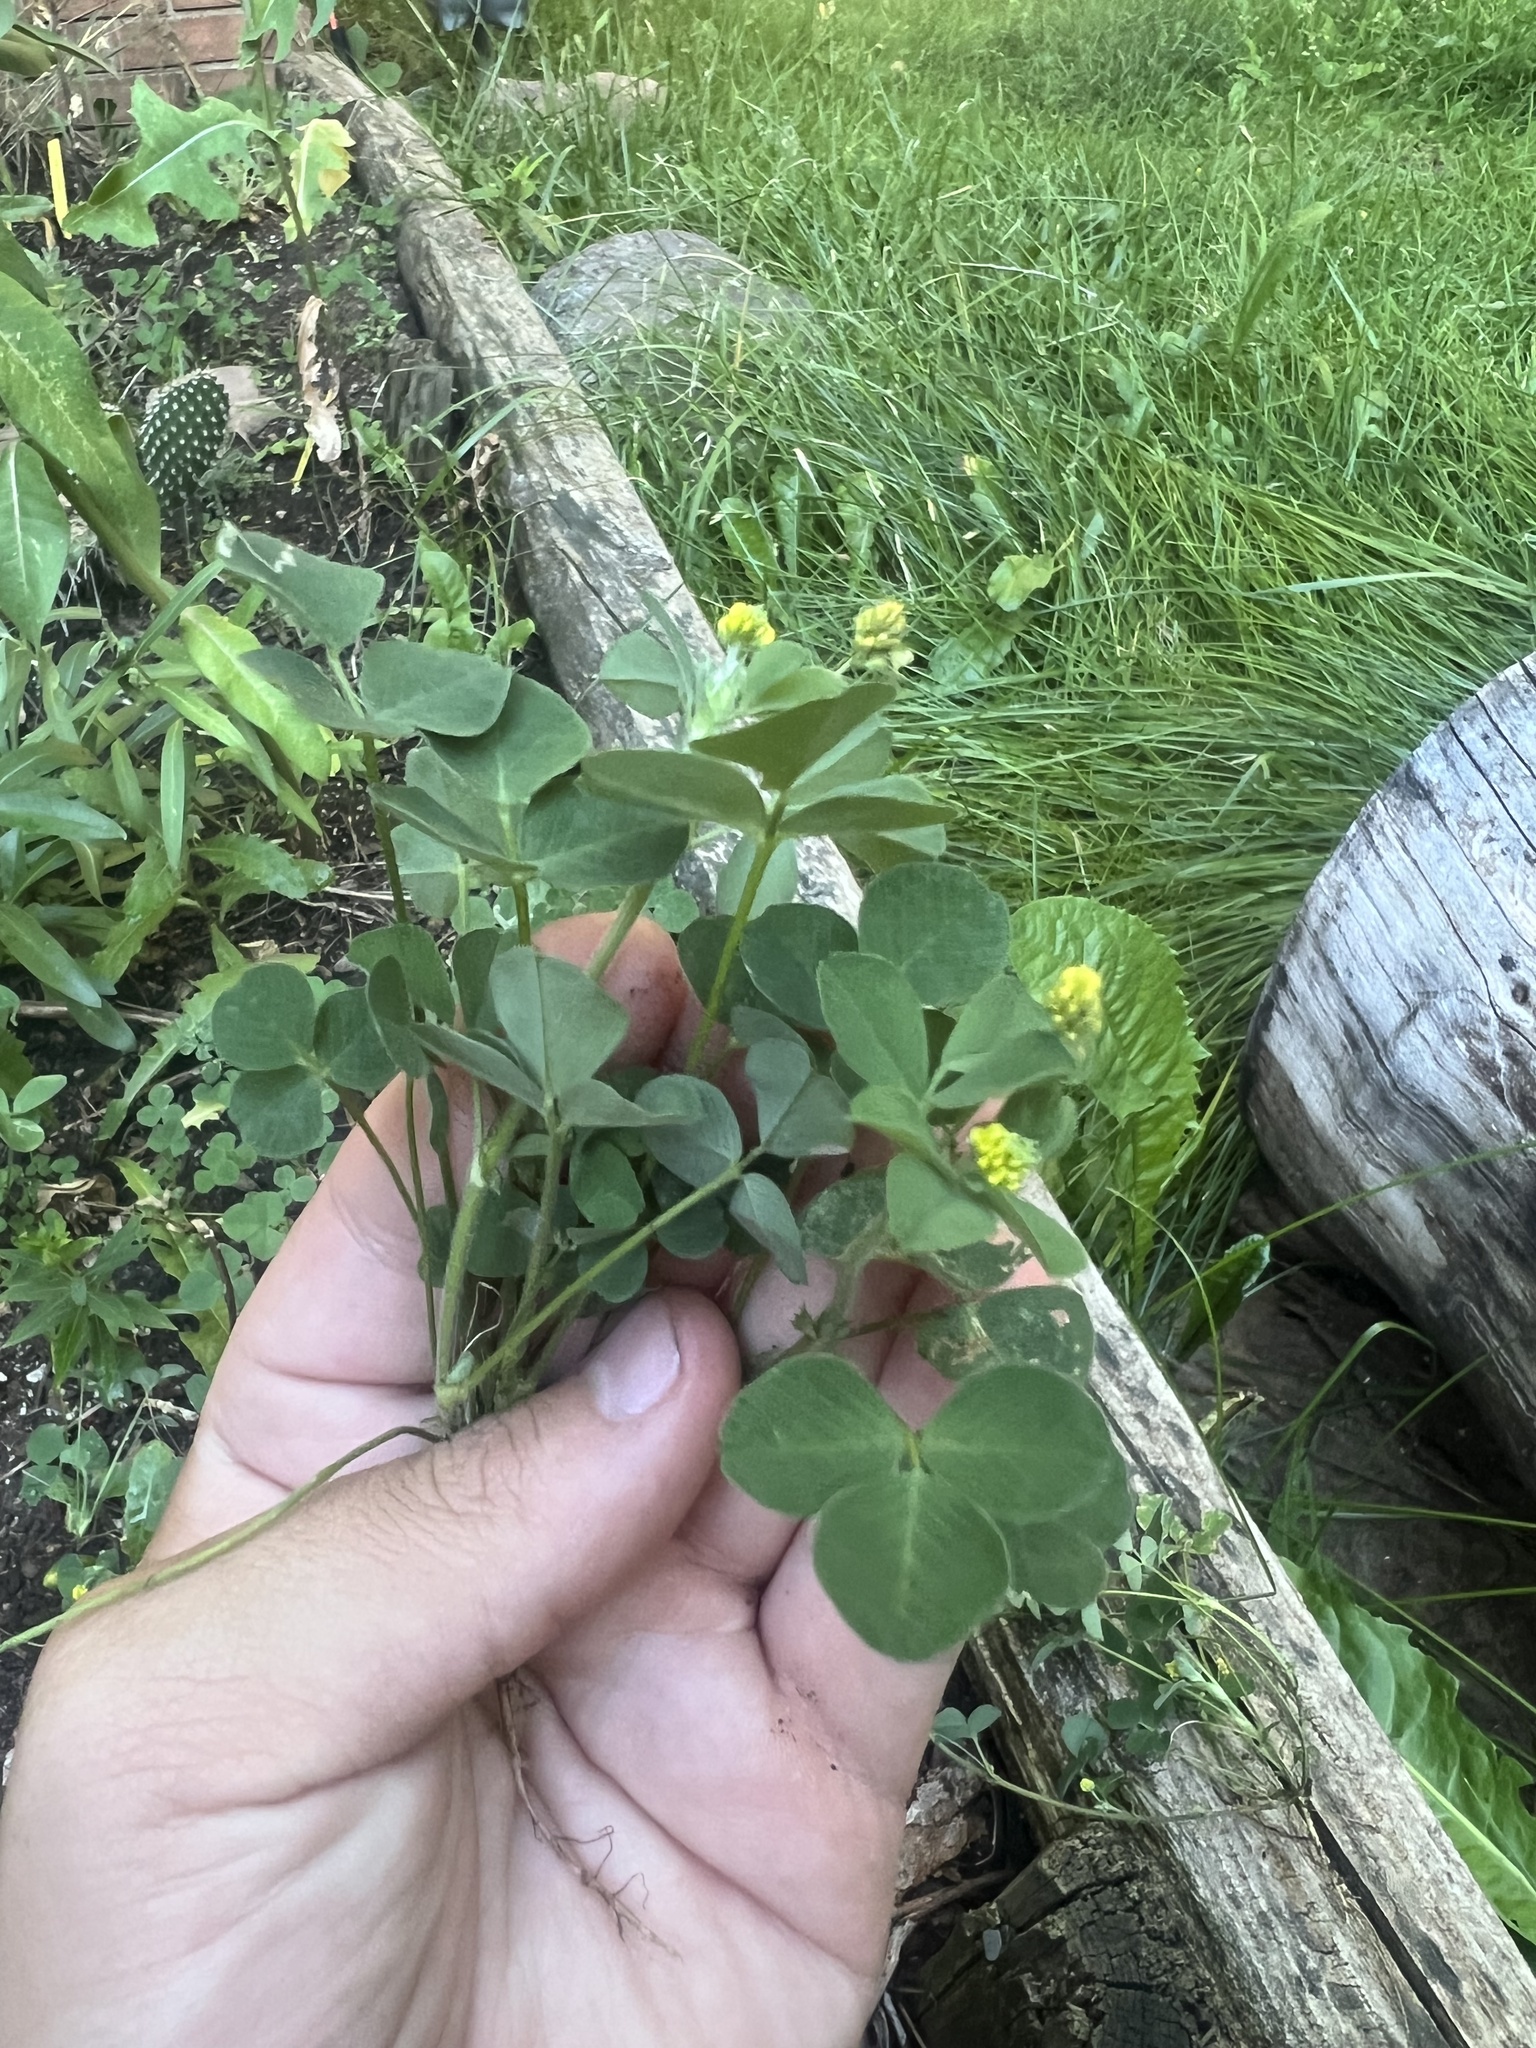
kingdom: Plantae
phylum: Tracheophyta
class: Magnoliopsida
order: Fabales
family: Fabaceae
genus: Medicago
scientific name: Medicago lupulina
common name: Black medick
